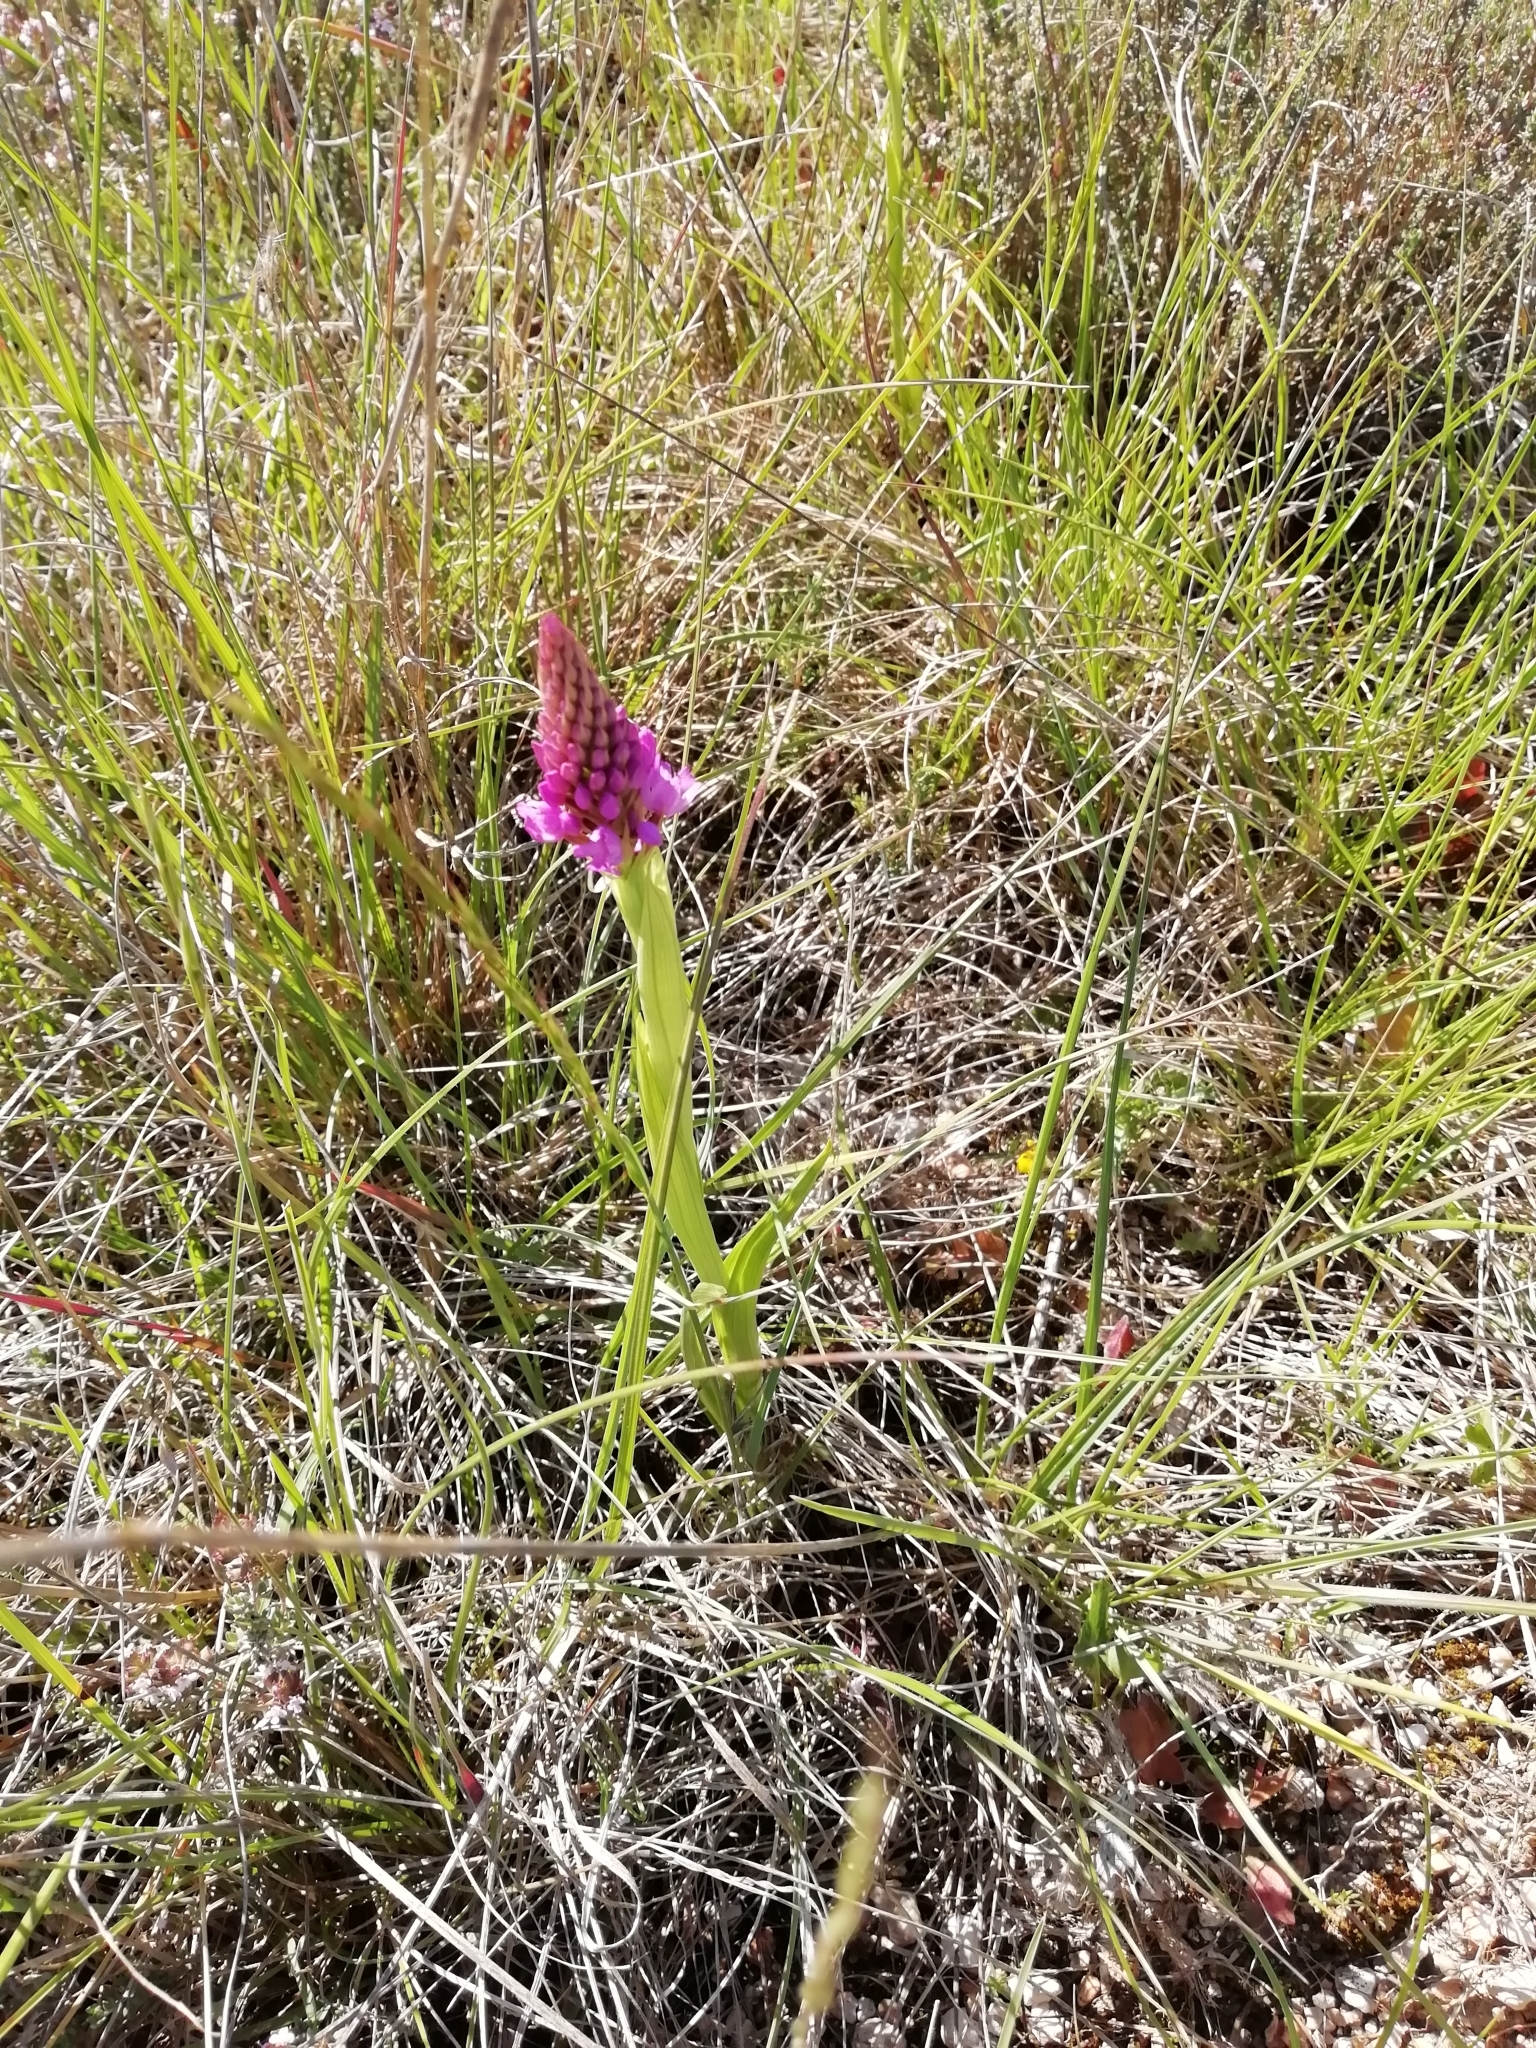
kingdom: Plantae
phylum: Tracheophyta
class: Liliopsida
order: Asparagales
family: Orchidaceae
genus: Anacamptis
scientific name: Anacamptis pyramidalis
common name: Pyramidal orchid
